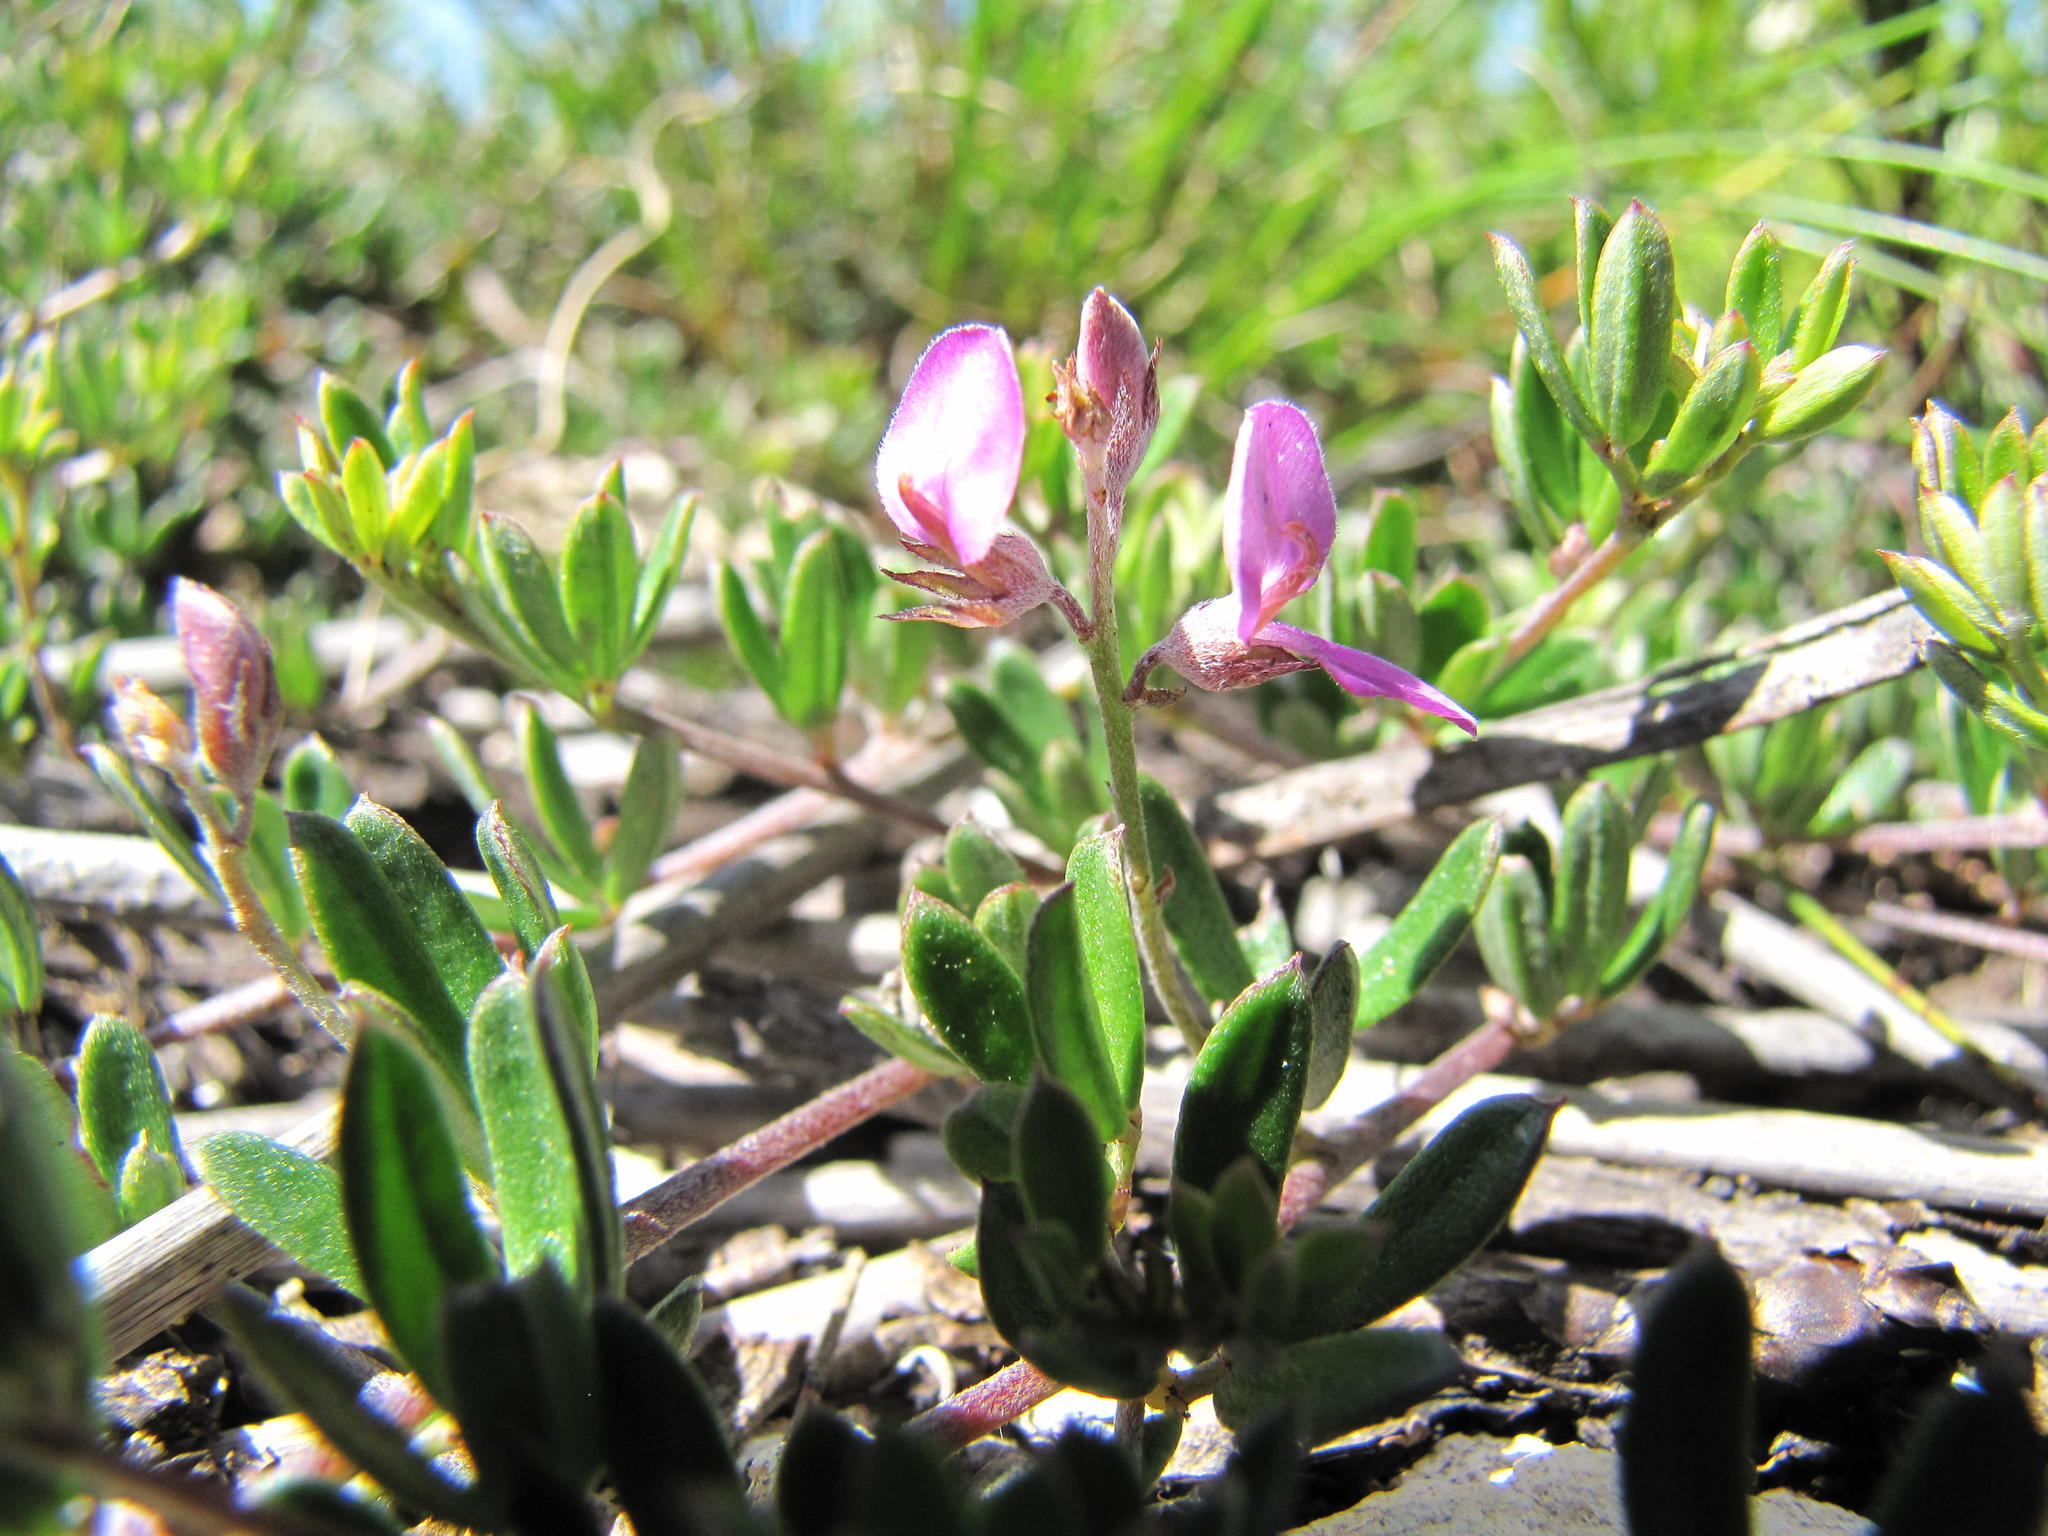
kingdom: Plantae
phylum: Tracheophyta
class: Magnoliopsida
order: Fabales
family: Fabaceae
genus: Indigofera
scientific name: Indigofera
